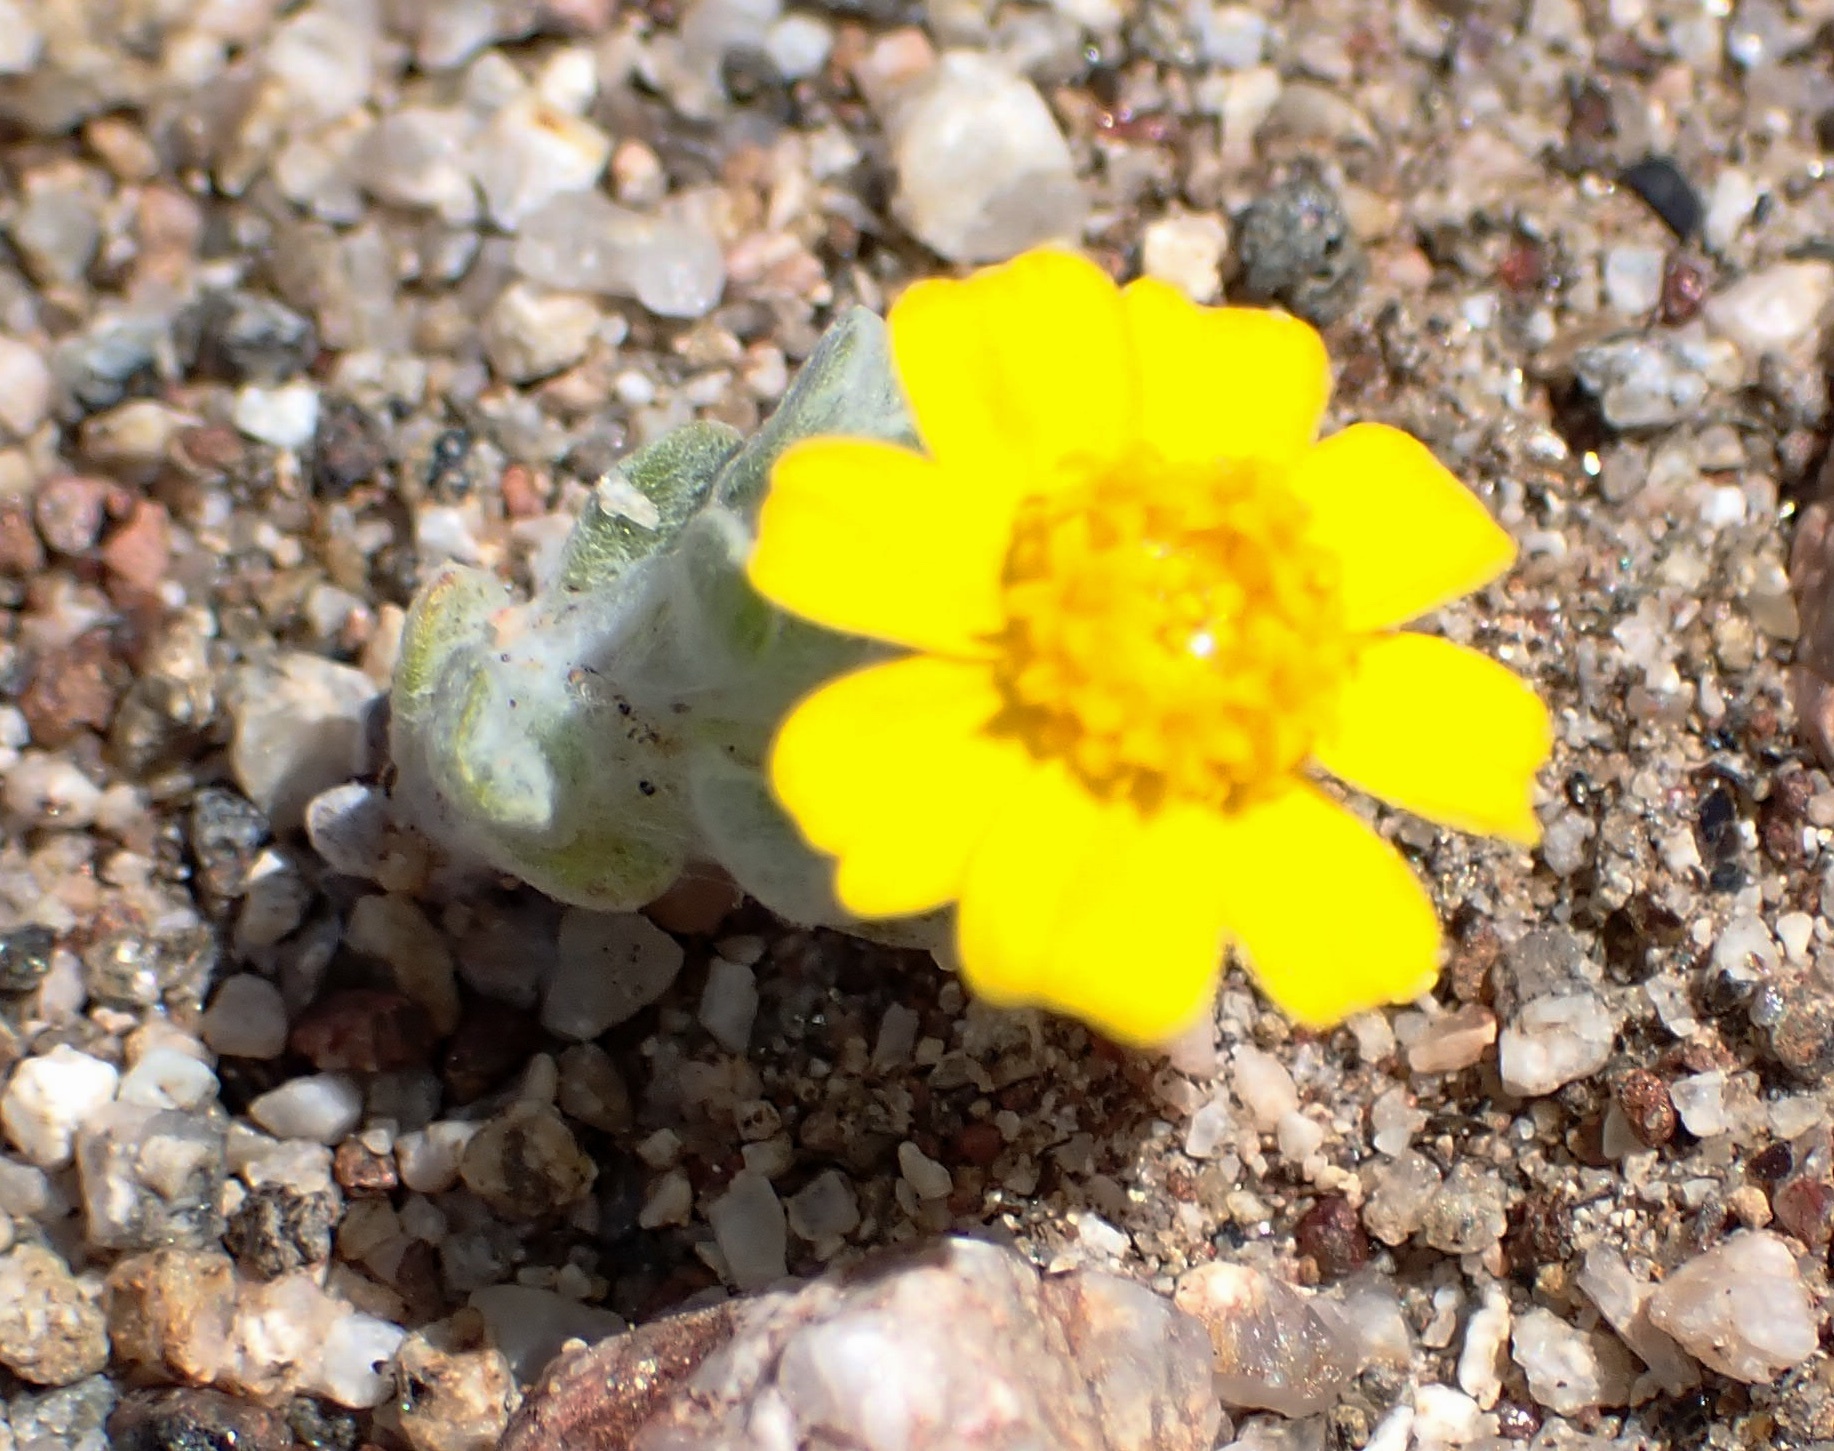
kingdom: Plantae
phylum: Tracheophyta
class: Magnoliopsida
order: Asterales
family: Asteraceae
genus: Eriophyllum
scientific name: Eriophyllum wallacei
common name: Wallace's woolly daisy
